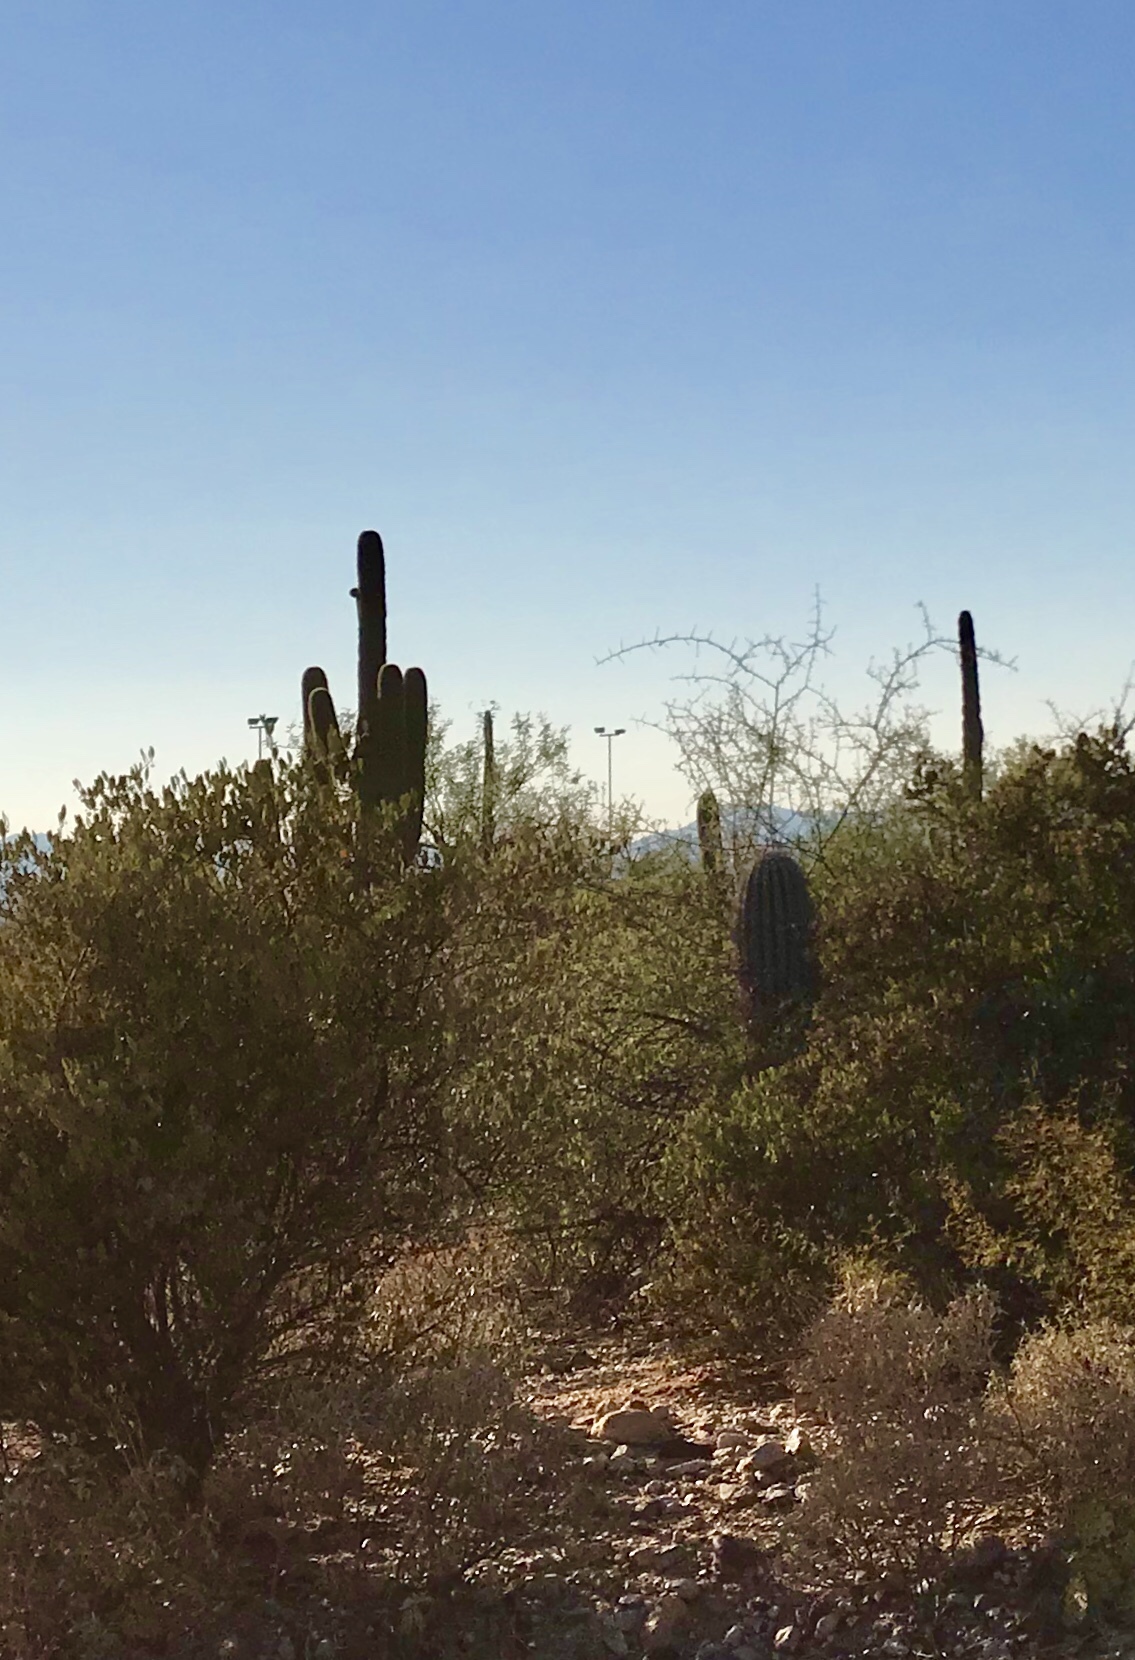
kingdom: Plantae
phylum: Tracheophyta
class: Magnoliopsida
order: Caryophyllales
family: Cactaceae
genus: Carnegiea
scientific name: Carnegiea gigantea
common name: Saguaro
